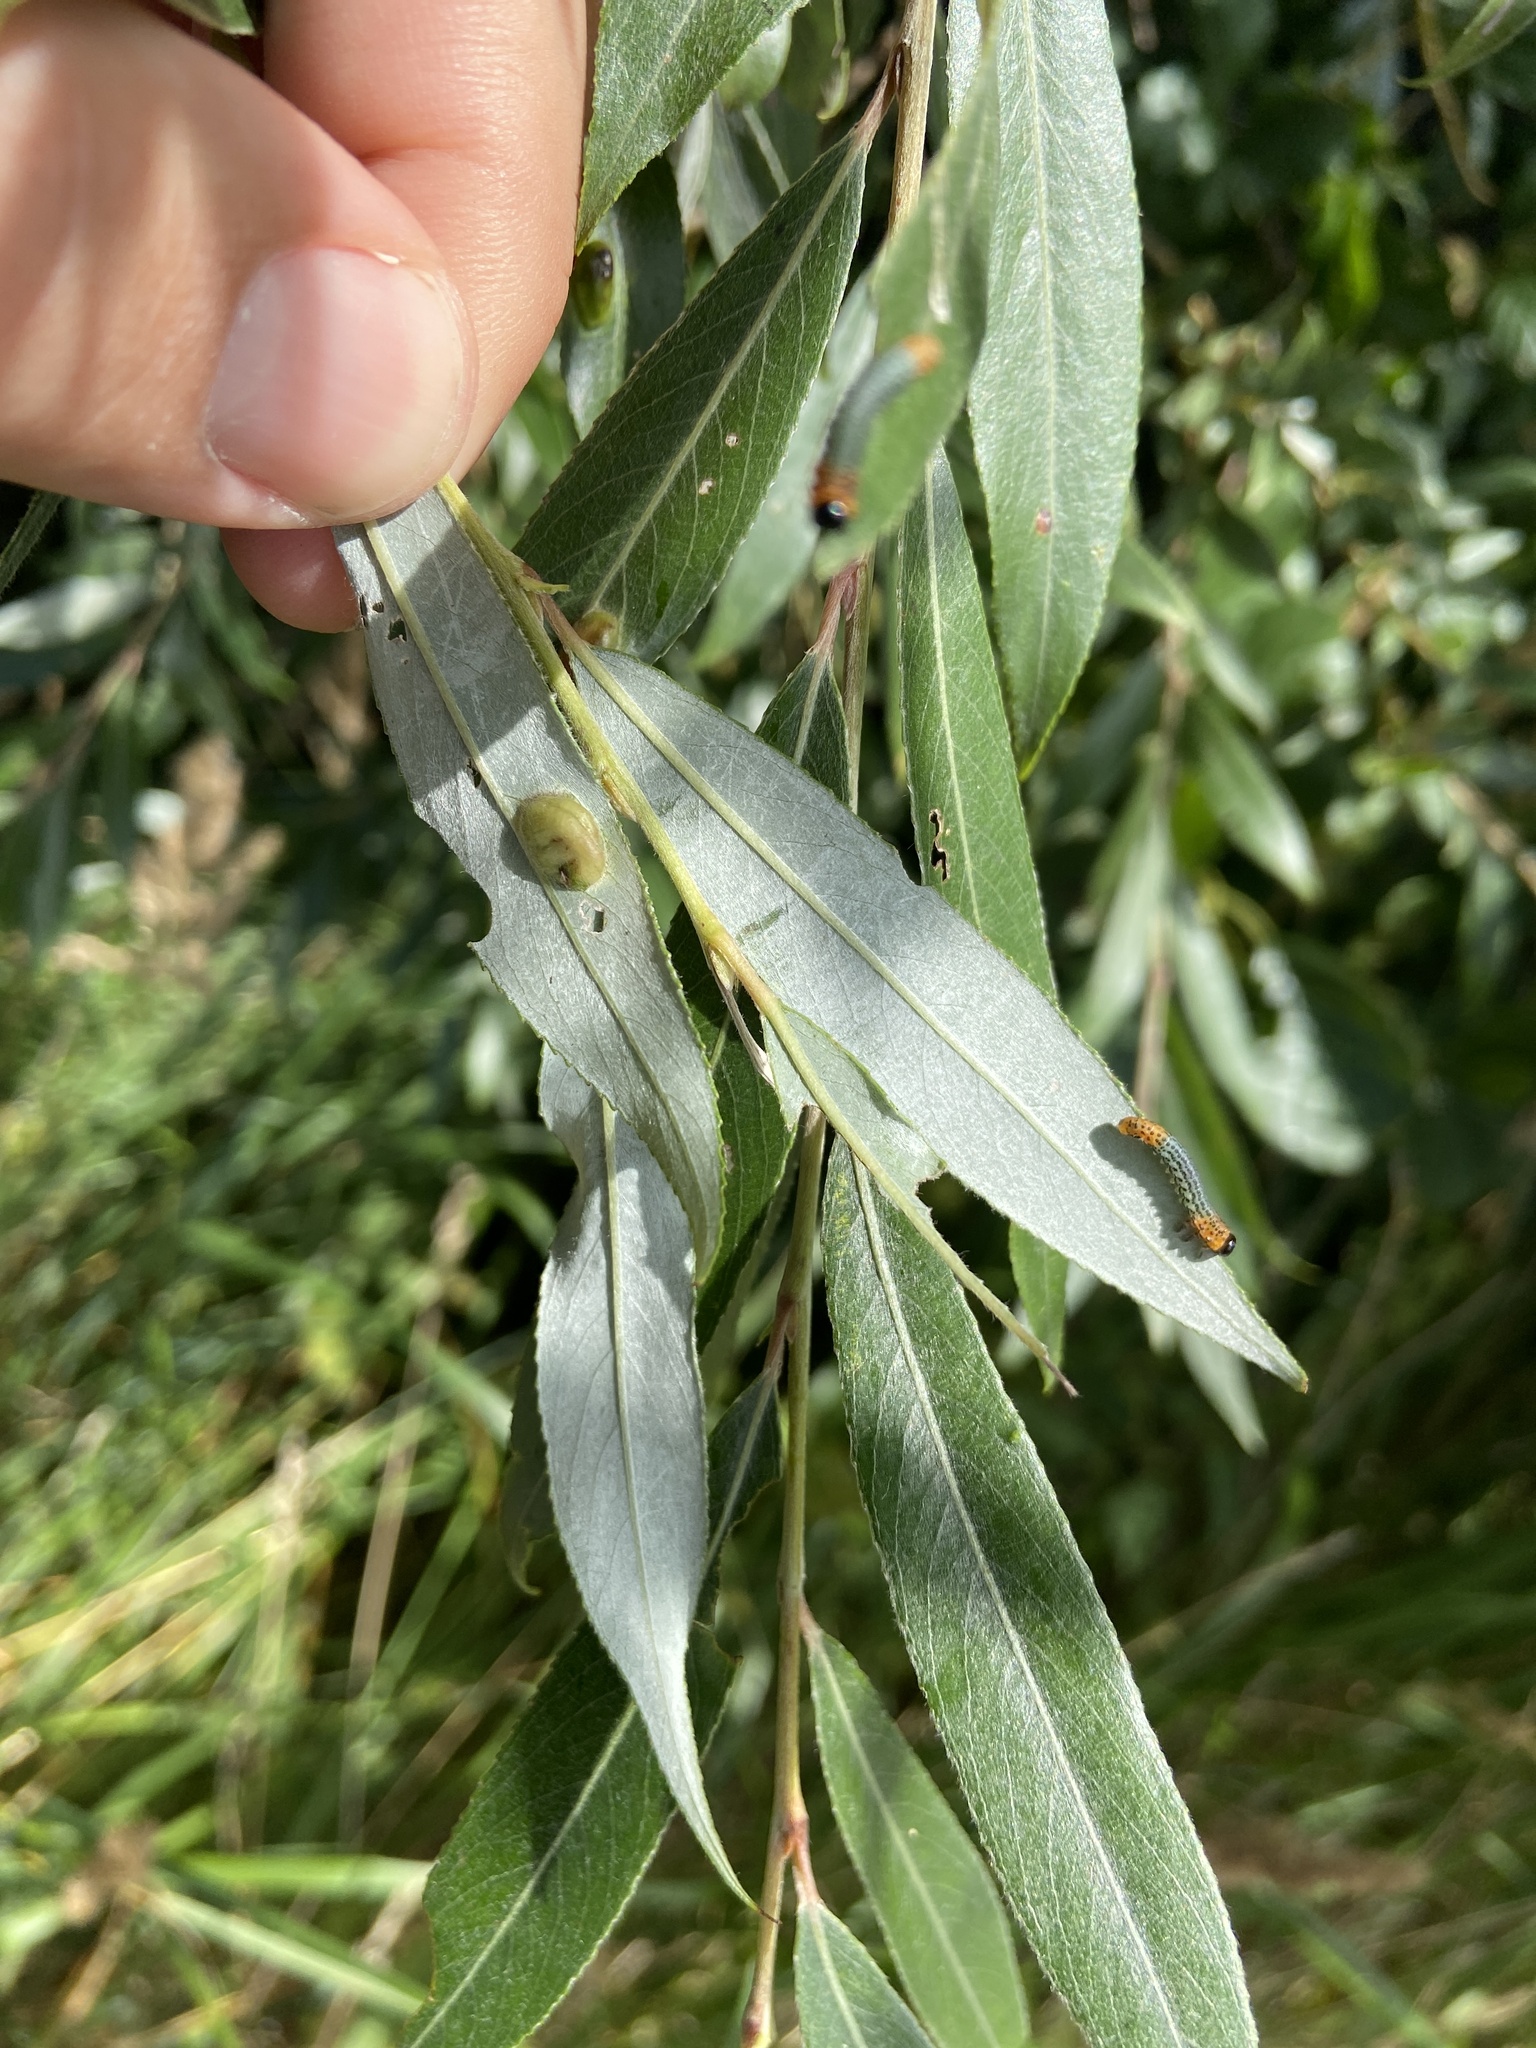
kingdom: Animalia
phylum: Arthropoda
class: Insecta
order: Hymenoptera
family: Tenthredinidae
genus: Nematus
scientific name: Nematus salicis
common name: Willow sawfly
